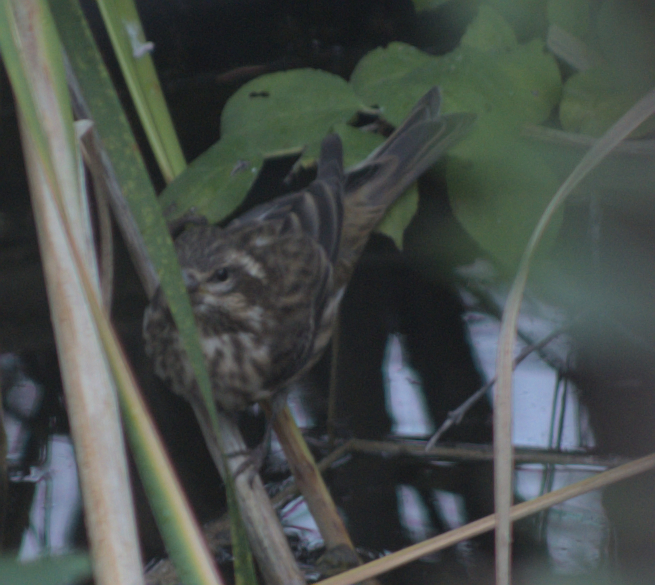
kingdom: Animalia
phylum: Chordata
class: Aves
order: Passeriformes
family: Fringillidae
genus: Haemorhous
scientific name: Haemorhous purpureus
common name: Purple finch
